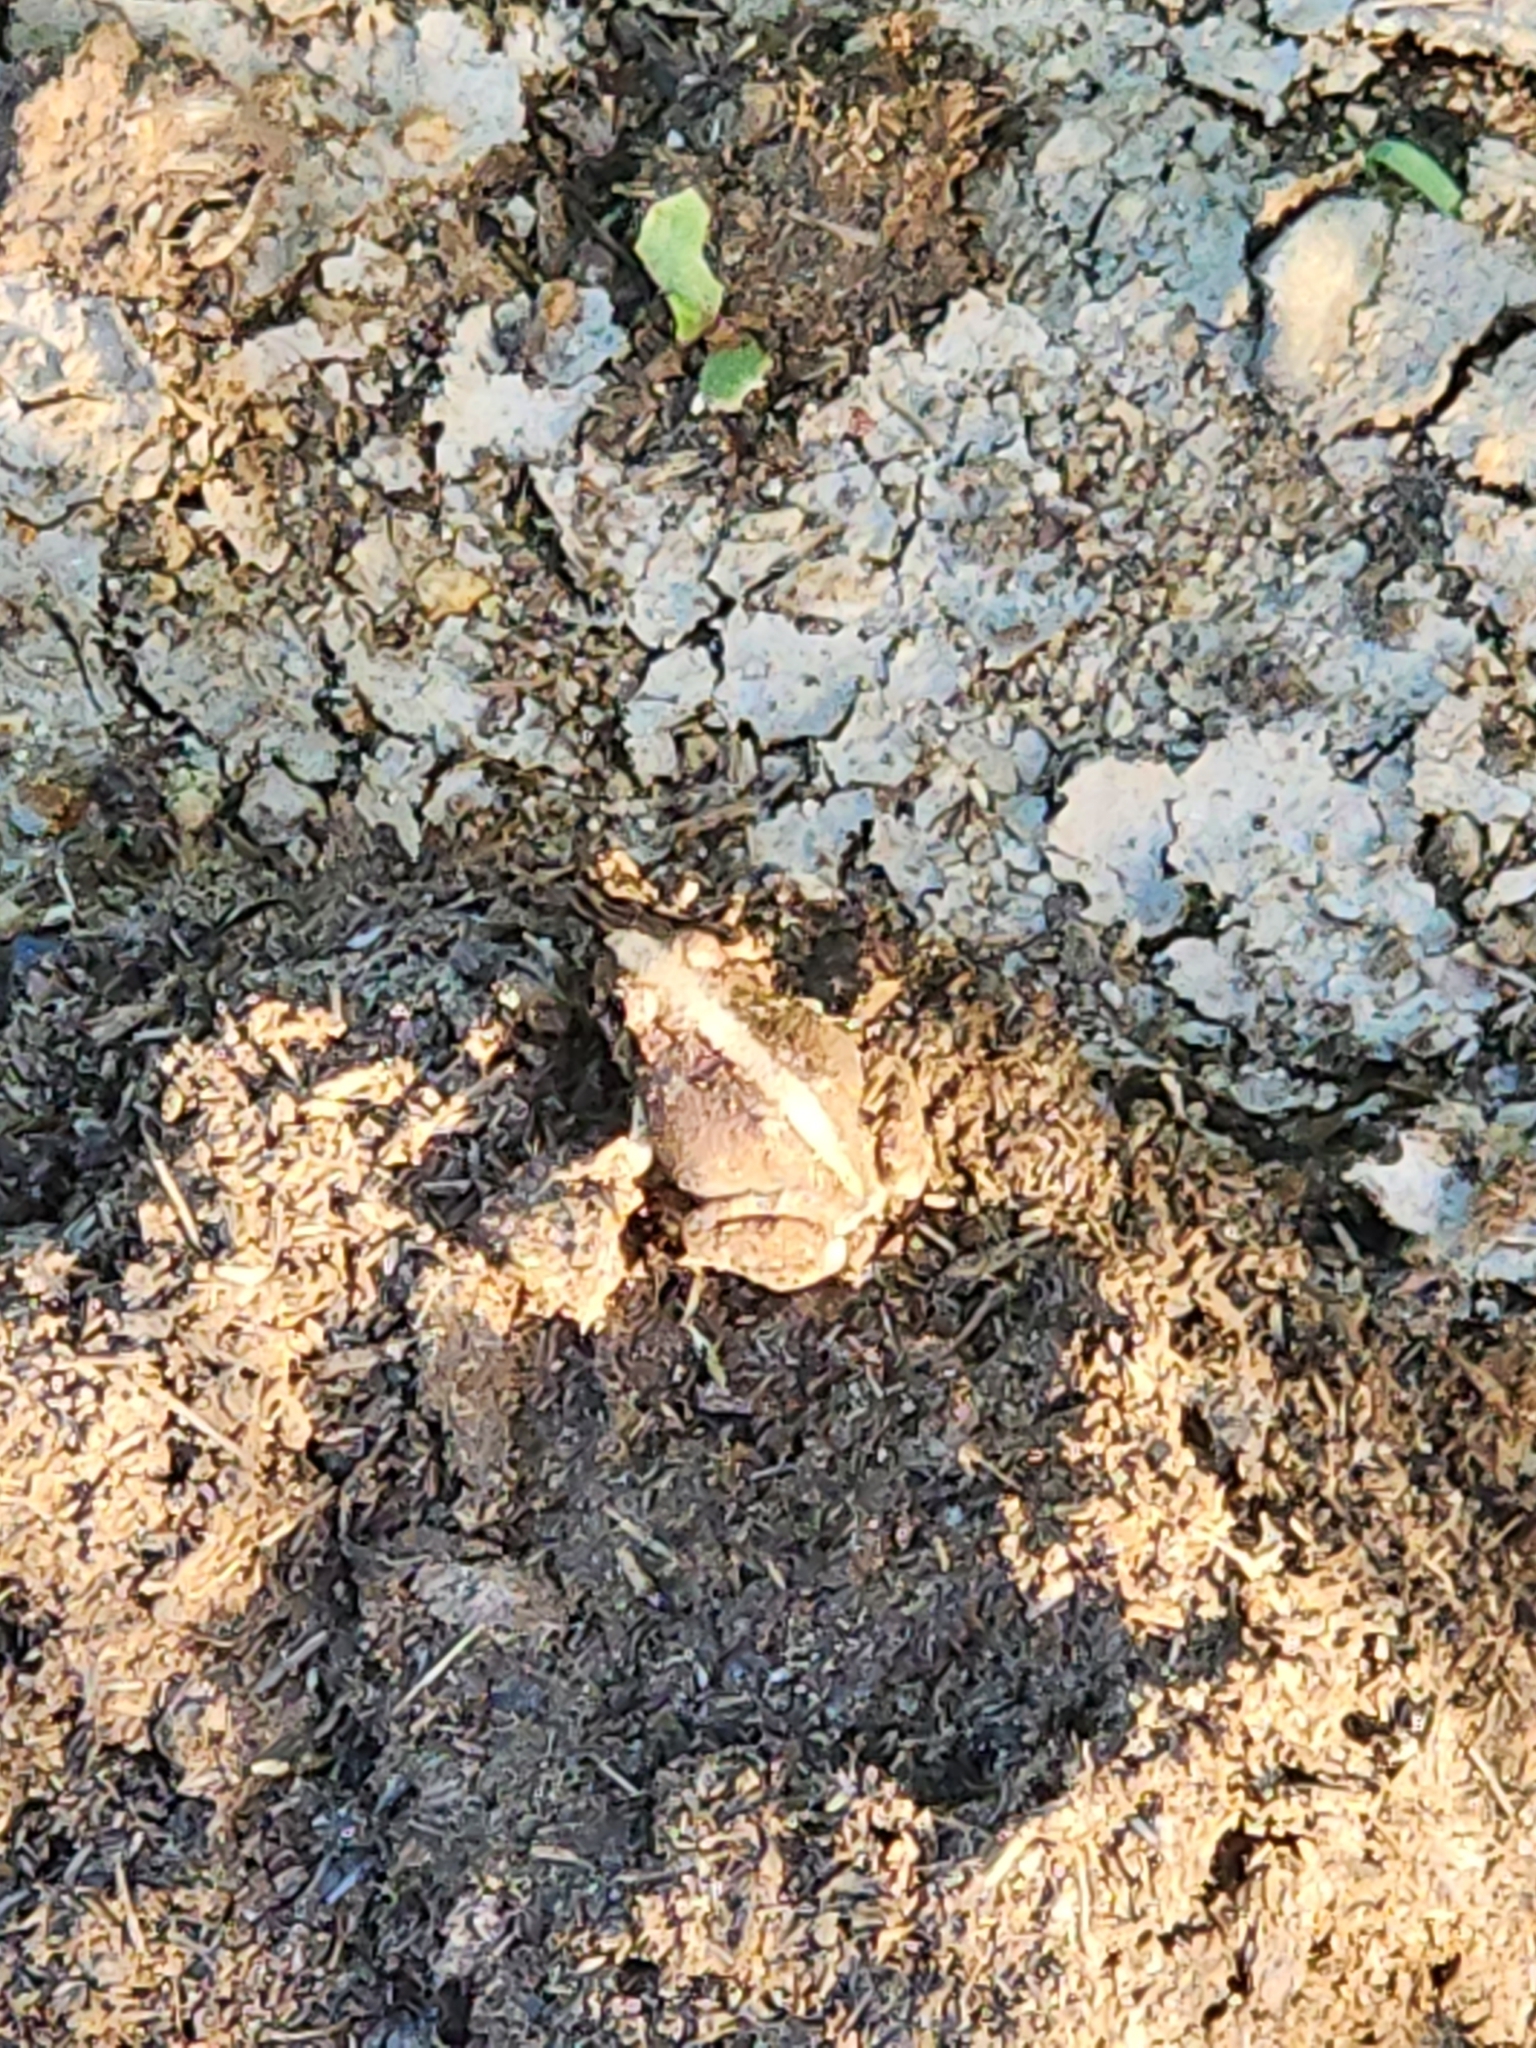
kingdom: Animalia
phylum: Chordata
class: Amphibia
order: Anura
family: Limnodynastidae
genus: Platyplectrum
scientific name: Platyplectrum ornatum
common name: Ornate burrowing frog
